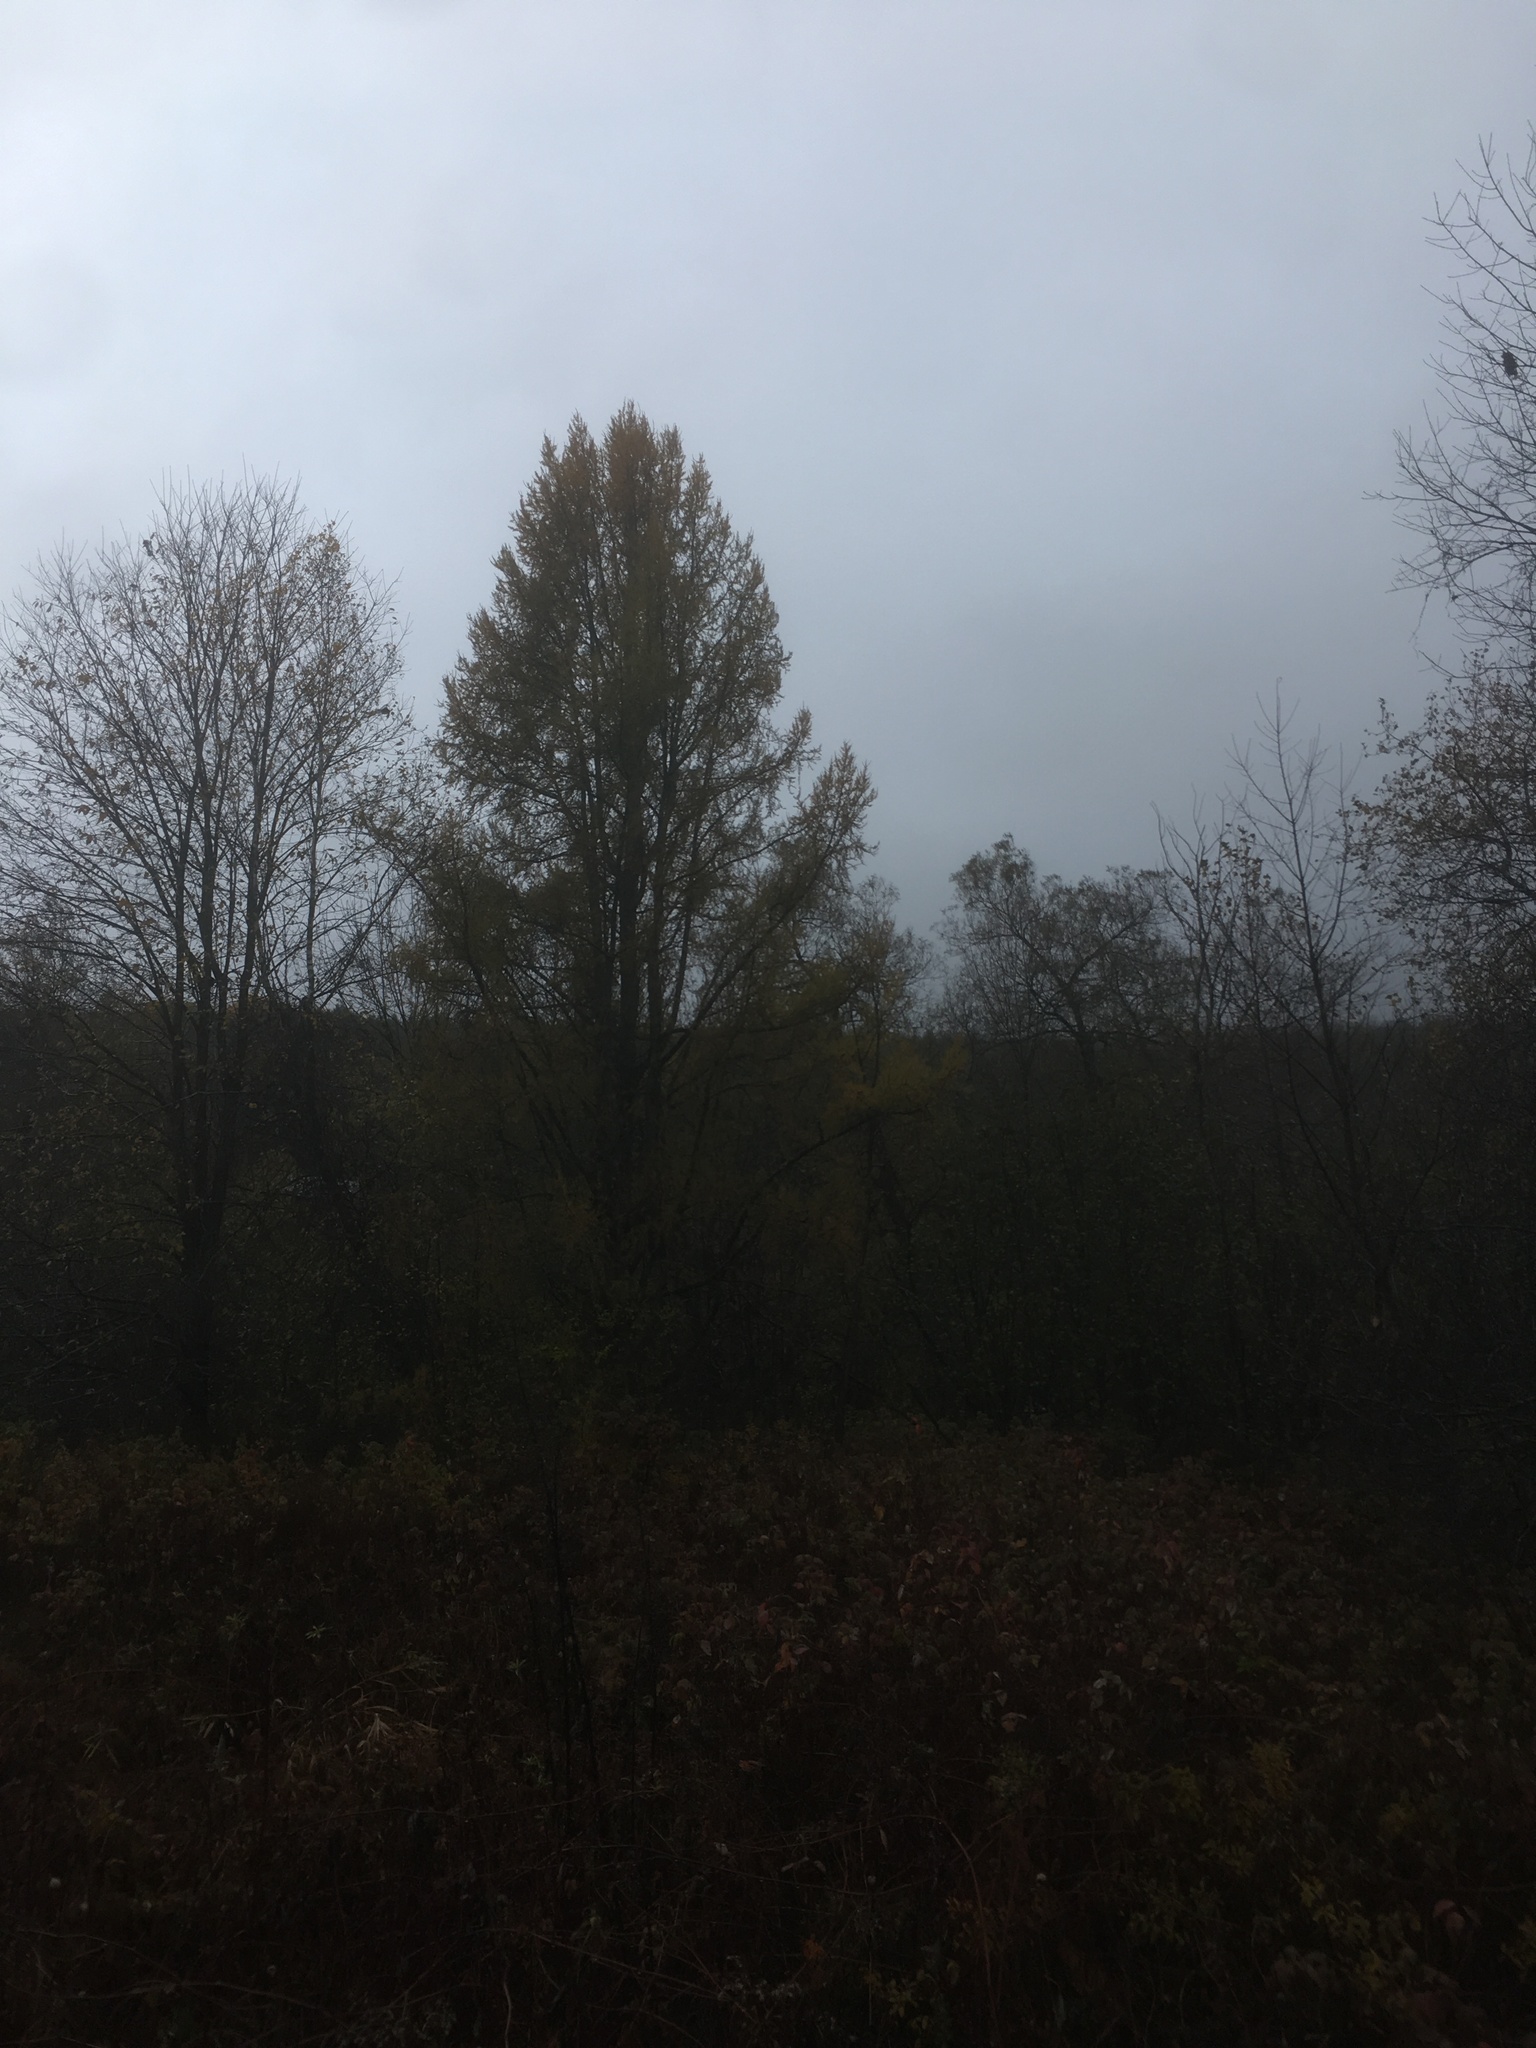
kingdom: Plantae
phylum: Tracheophyta
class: Pinopsida
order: Pinales
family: Pinaceae
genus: Larix
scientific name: Larix laricina
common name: American larch
